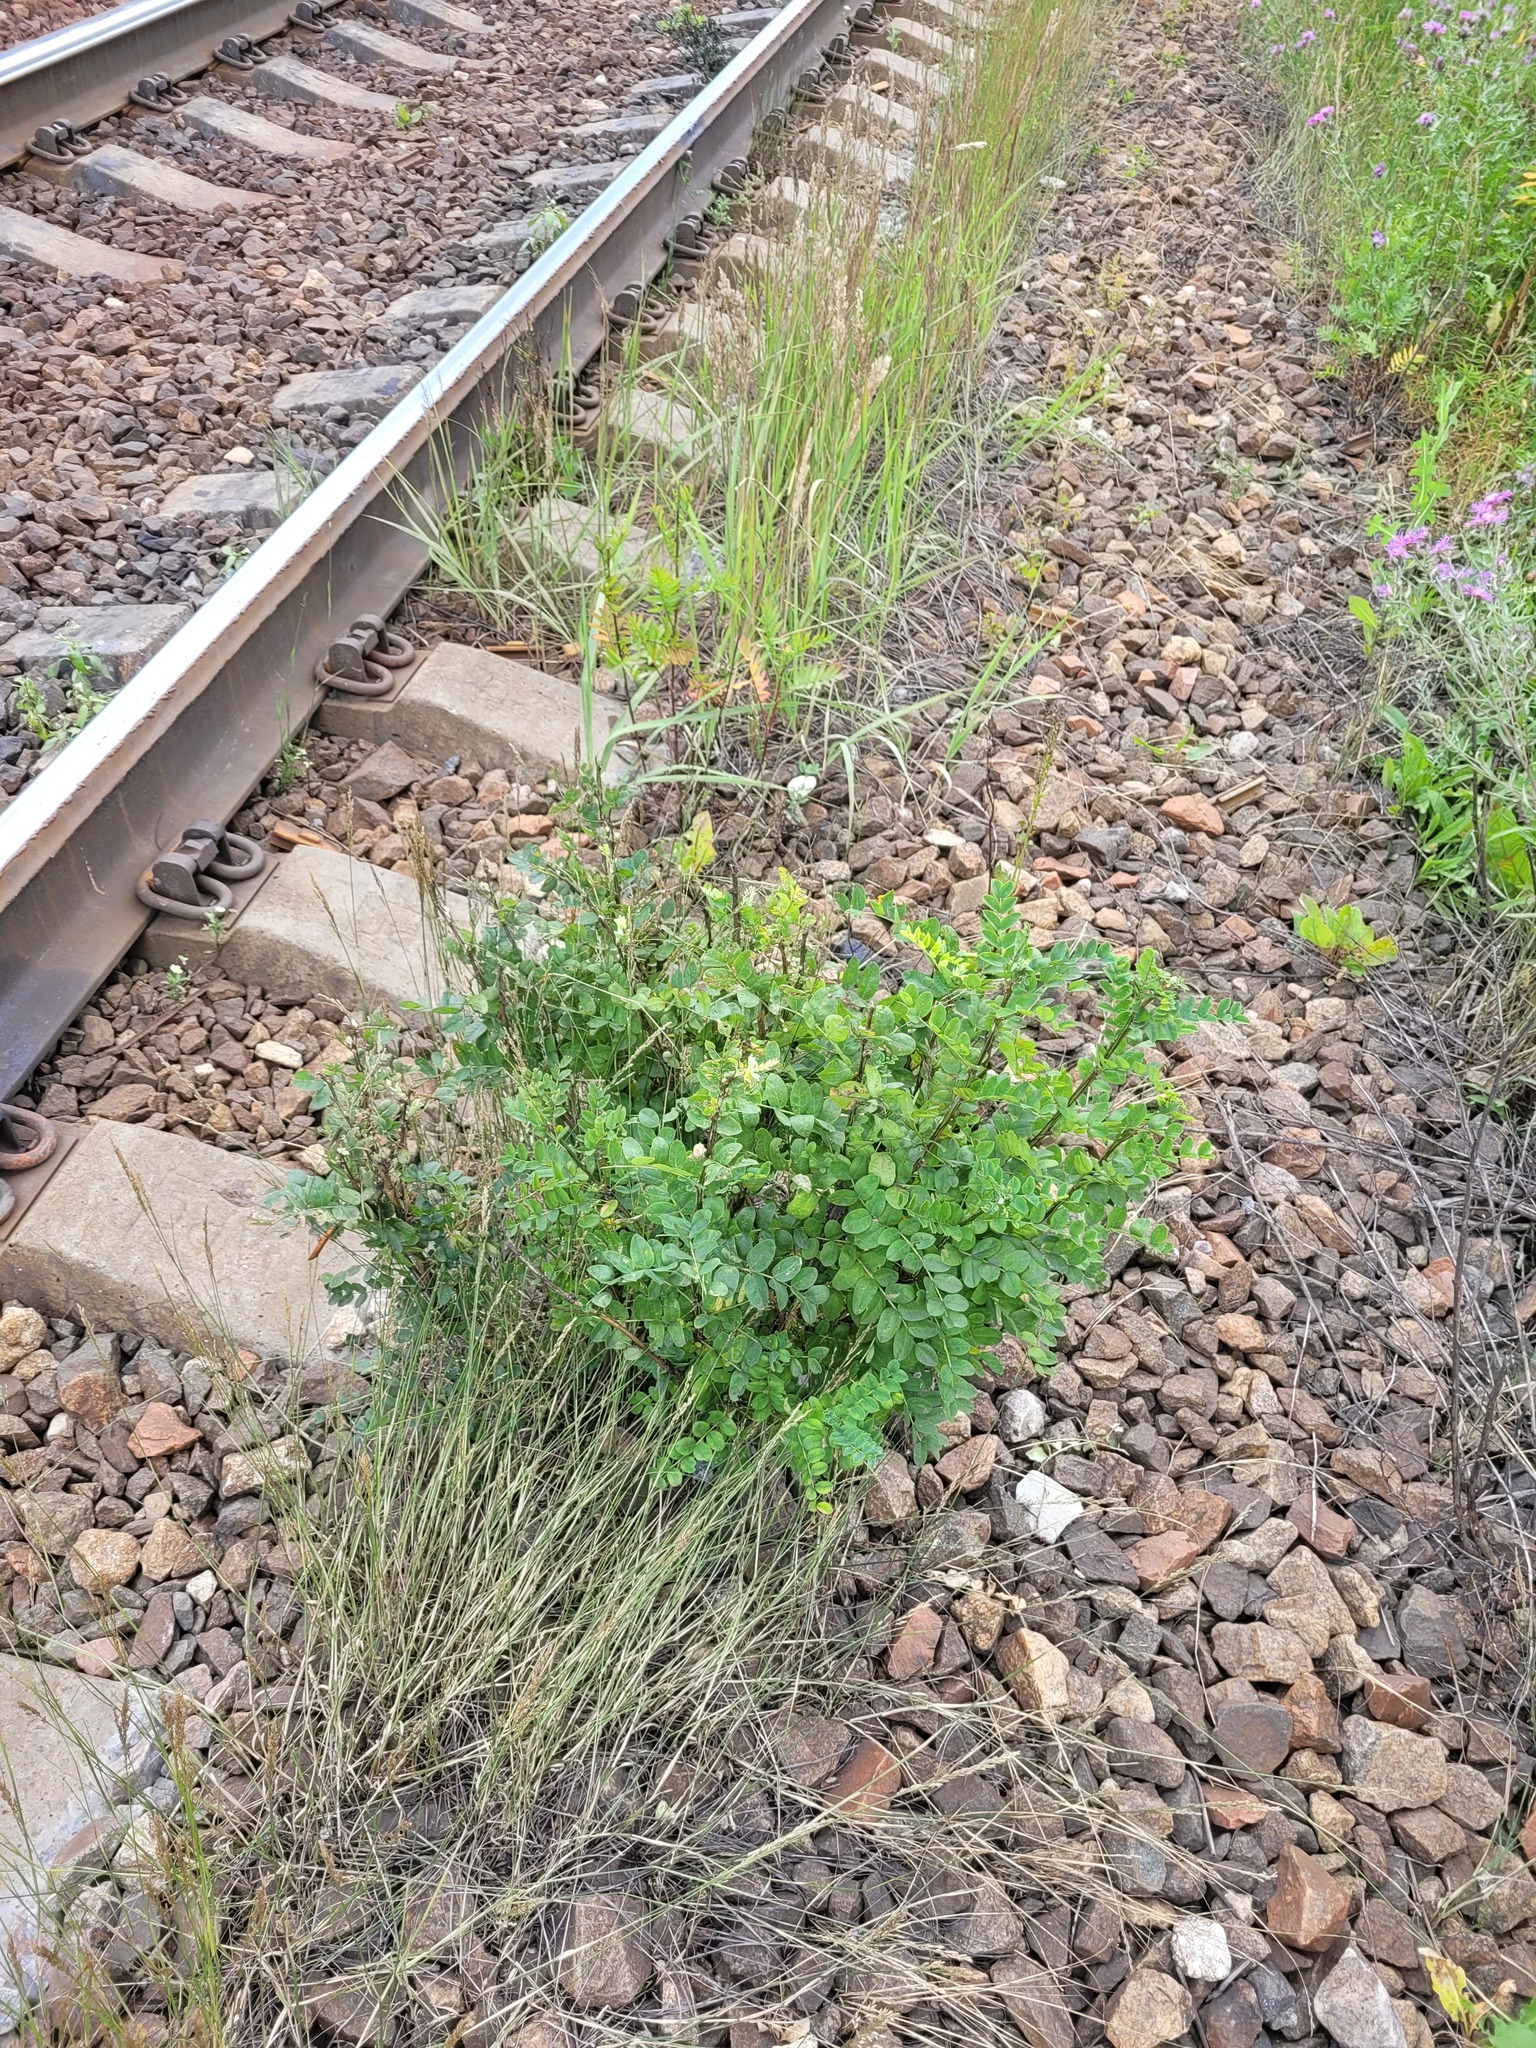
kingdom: Plantae
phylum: Tracheophyta
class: Magnoliopsida
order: Fabales
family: Fabaceae
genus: Caragana
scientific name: Caragana arborescens
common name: Siberian peashrub
